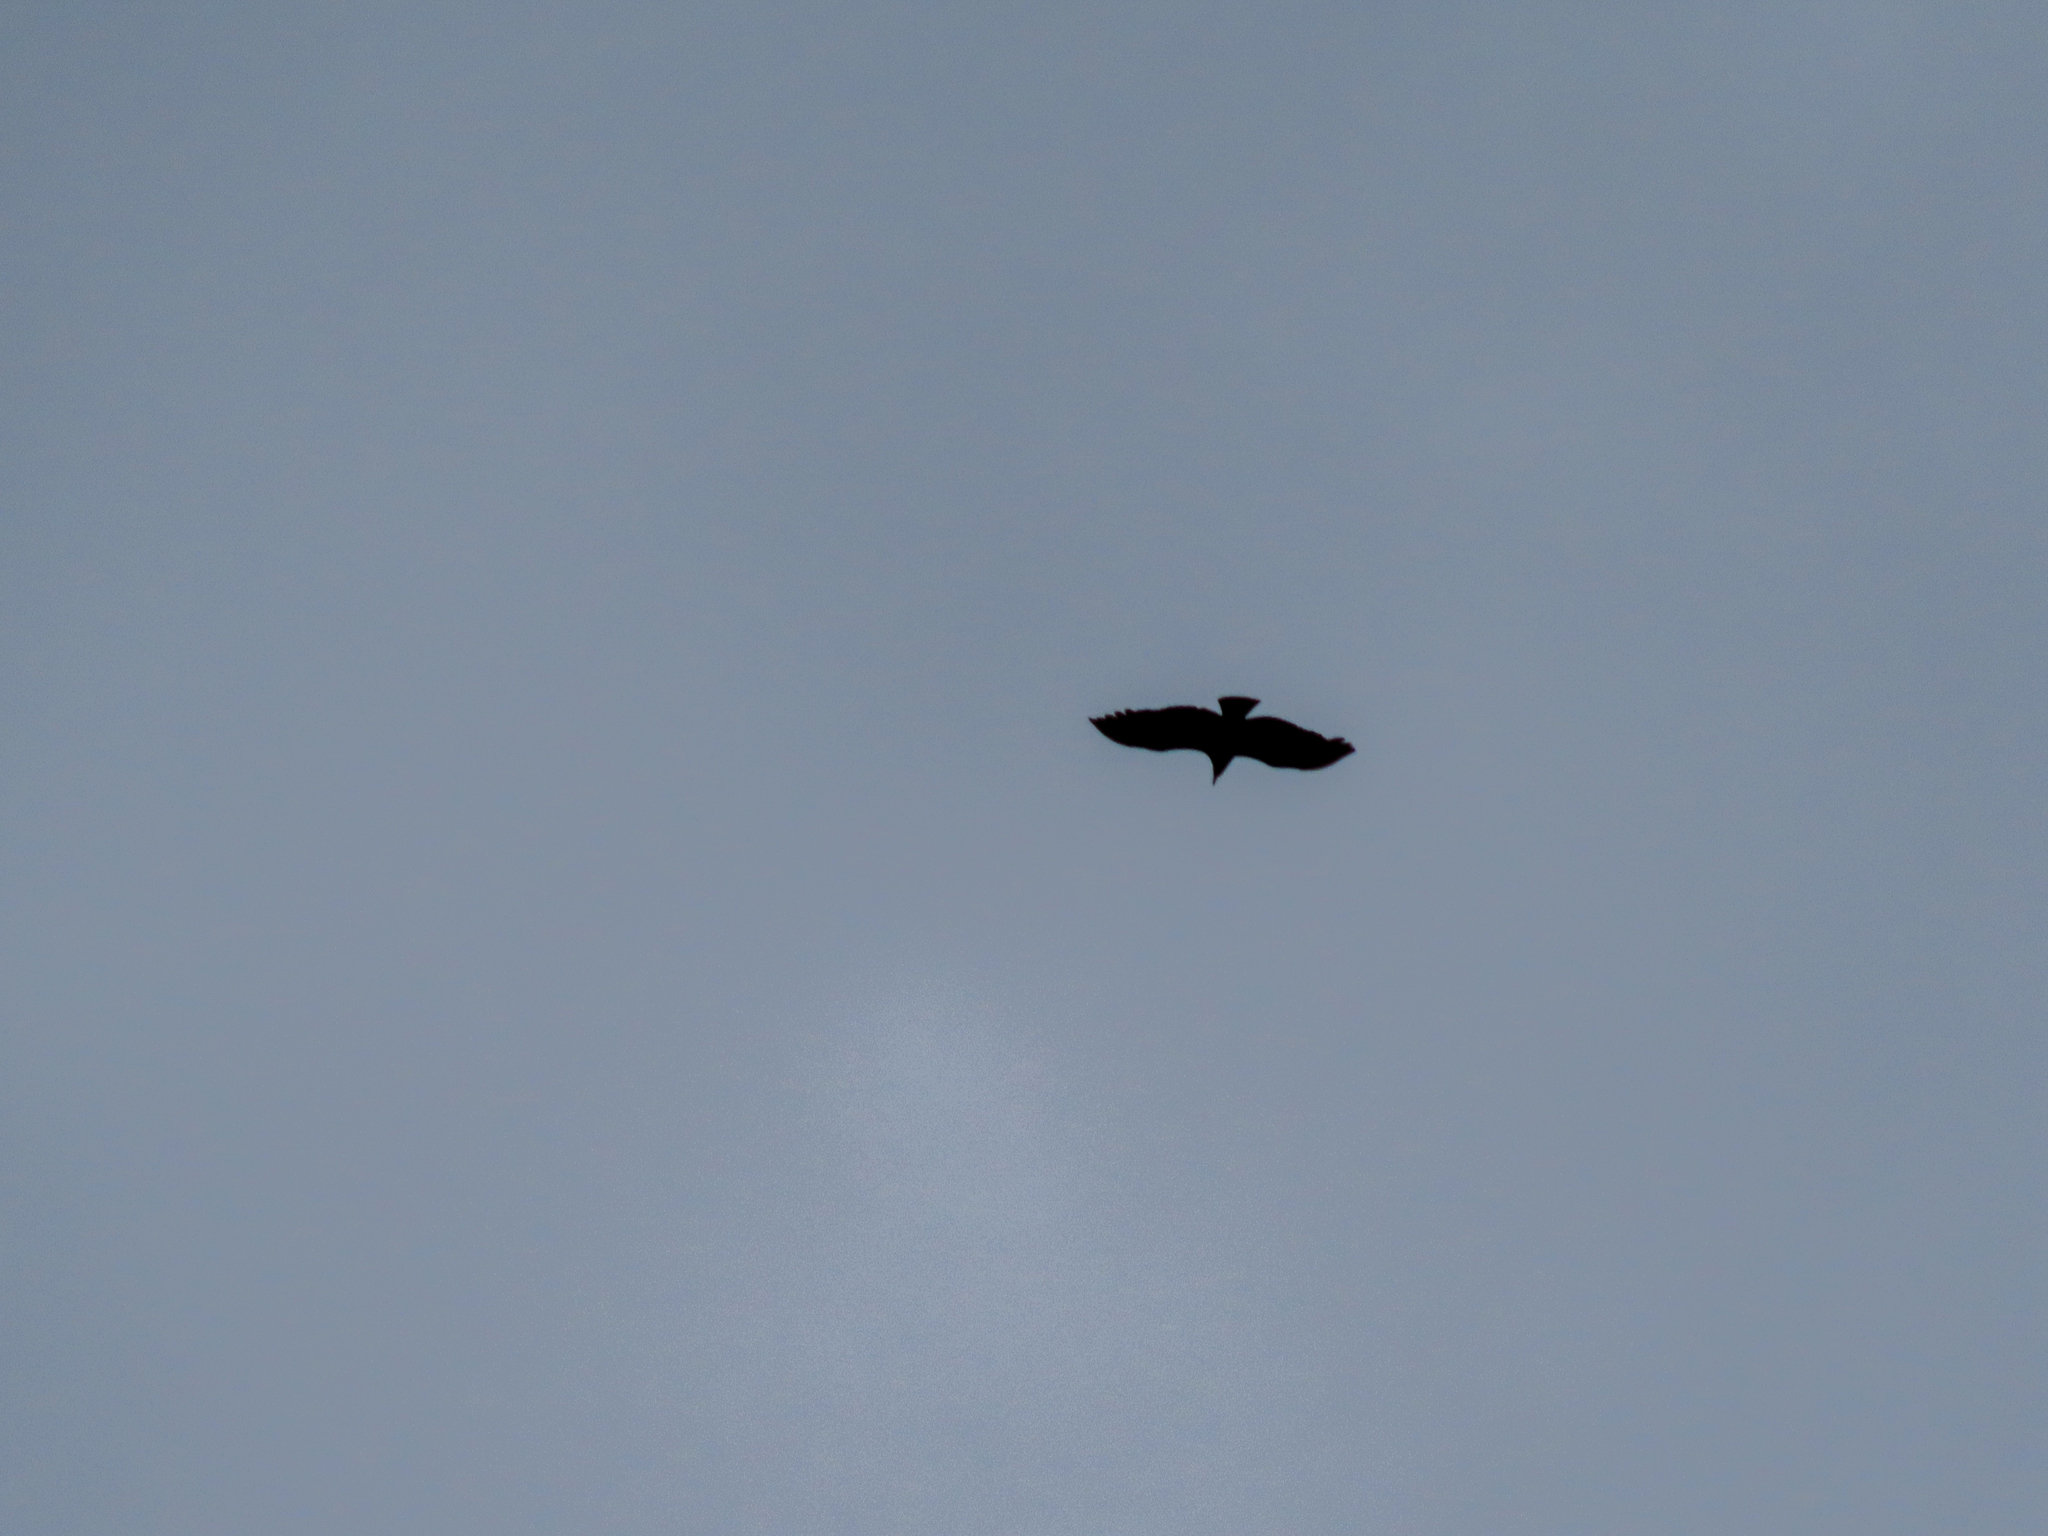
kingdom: Animalia
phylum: Chordata
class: Aves
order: Accipitriformes
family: Cathartidae
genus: Coragyps
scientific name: Coragyps atratus
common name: Black vulture
